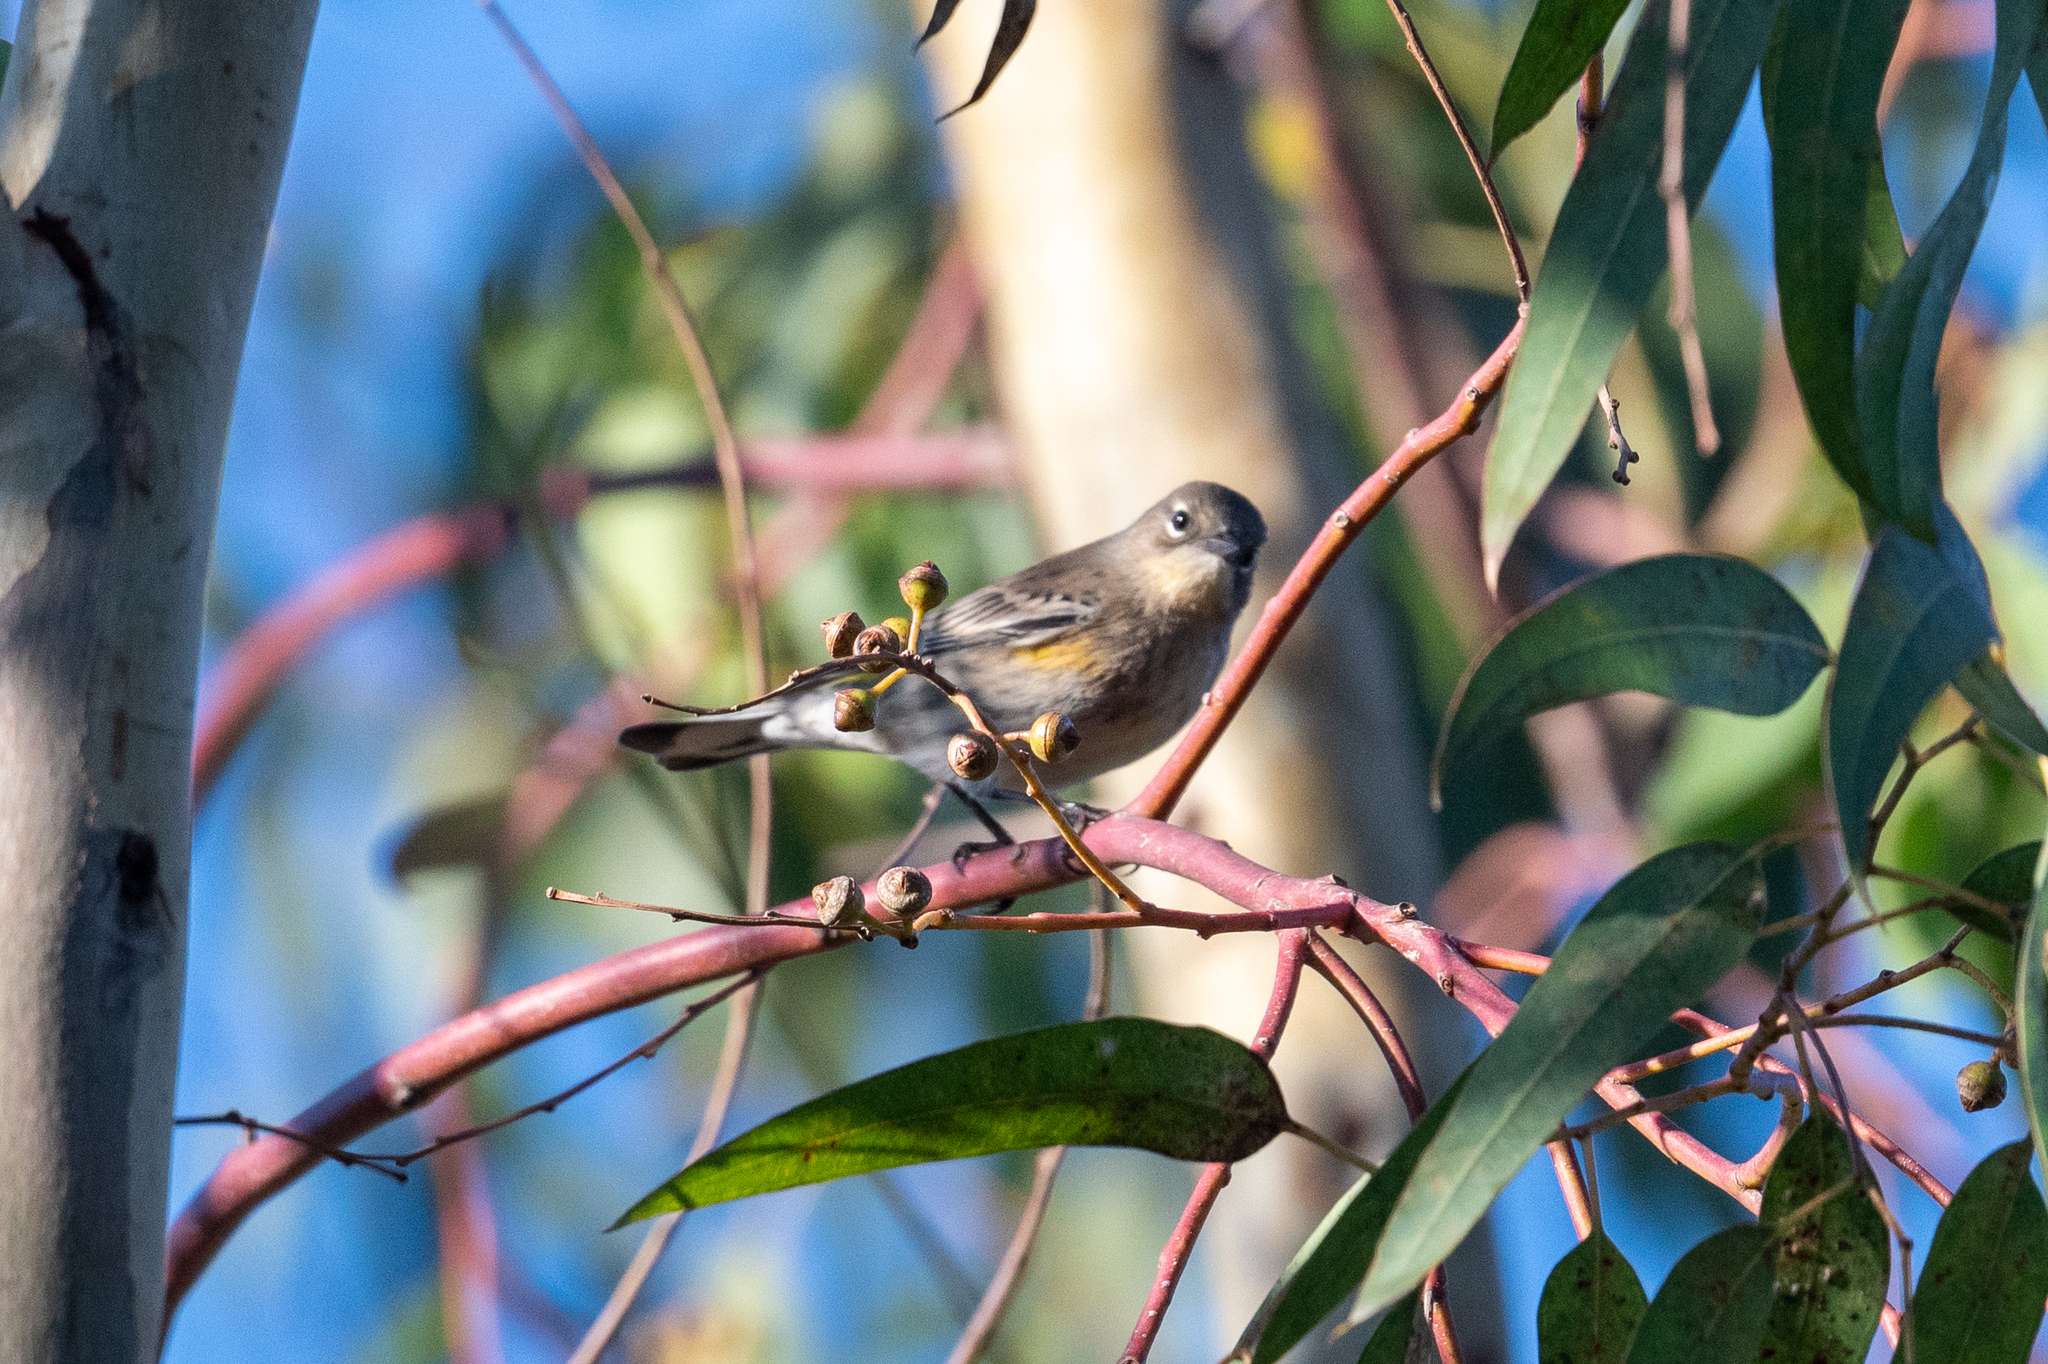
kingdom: Animalia
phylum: Chordata
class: Aves
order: Passeriformes
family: Parulidae
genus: Setophaga
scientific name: Setophaga coronata
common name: Myrtle warbler
